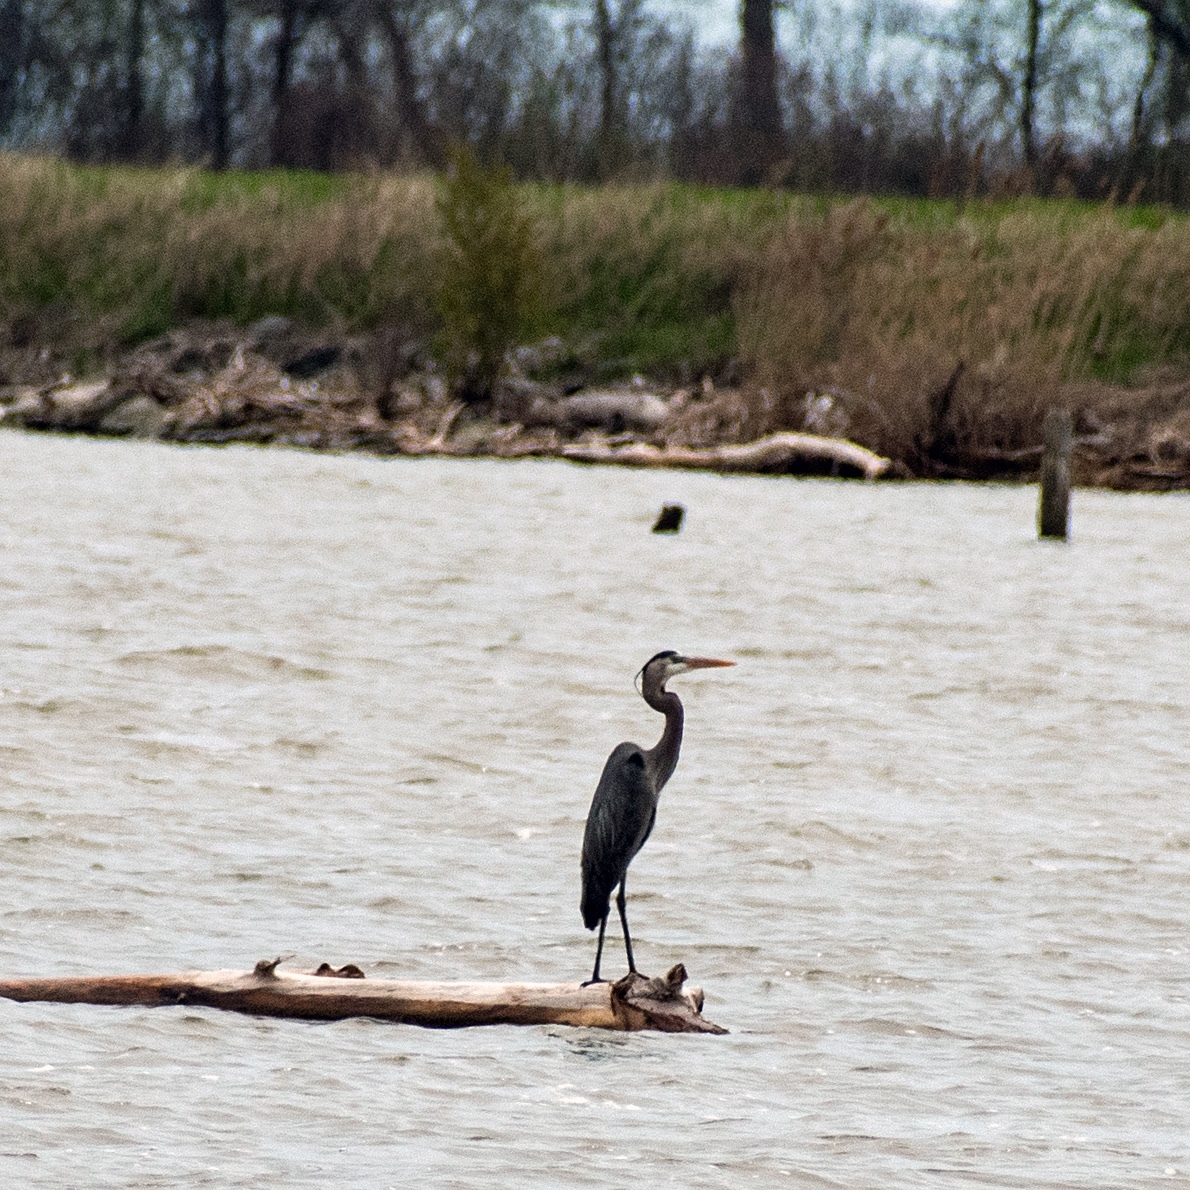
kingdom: Animalia
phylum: Chordata
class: Aves
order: Pelecaniformes
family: Ardeidae
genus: Ardea
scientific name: Ardea herodias
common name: Great blue heron
